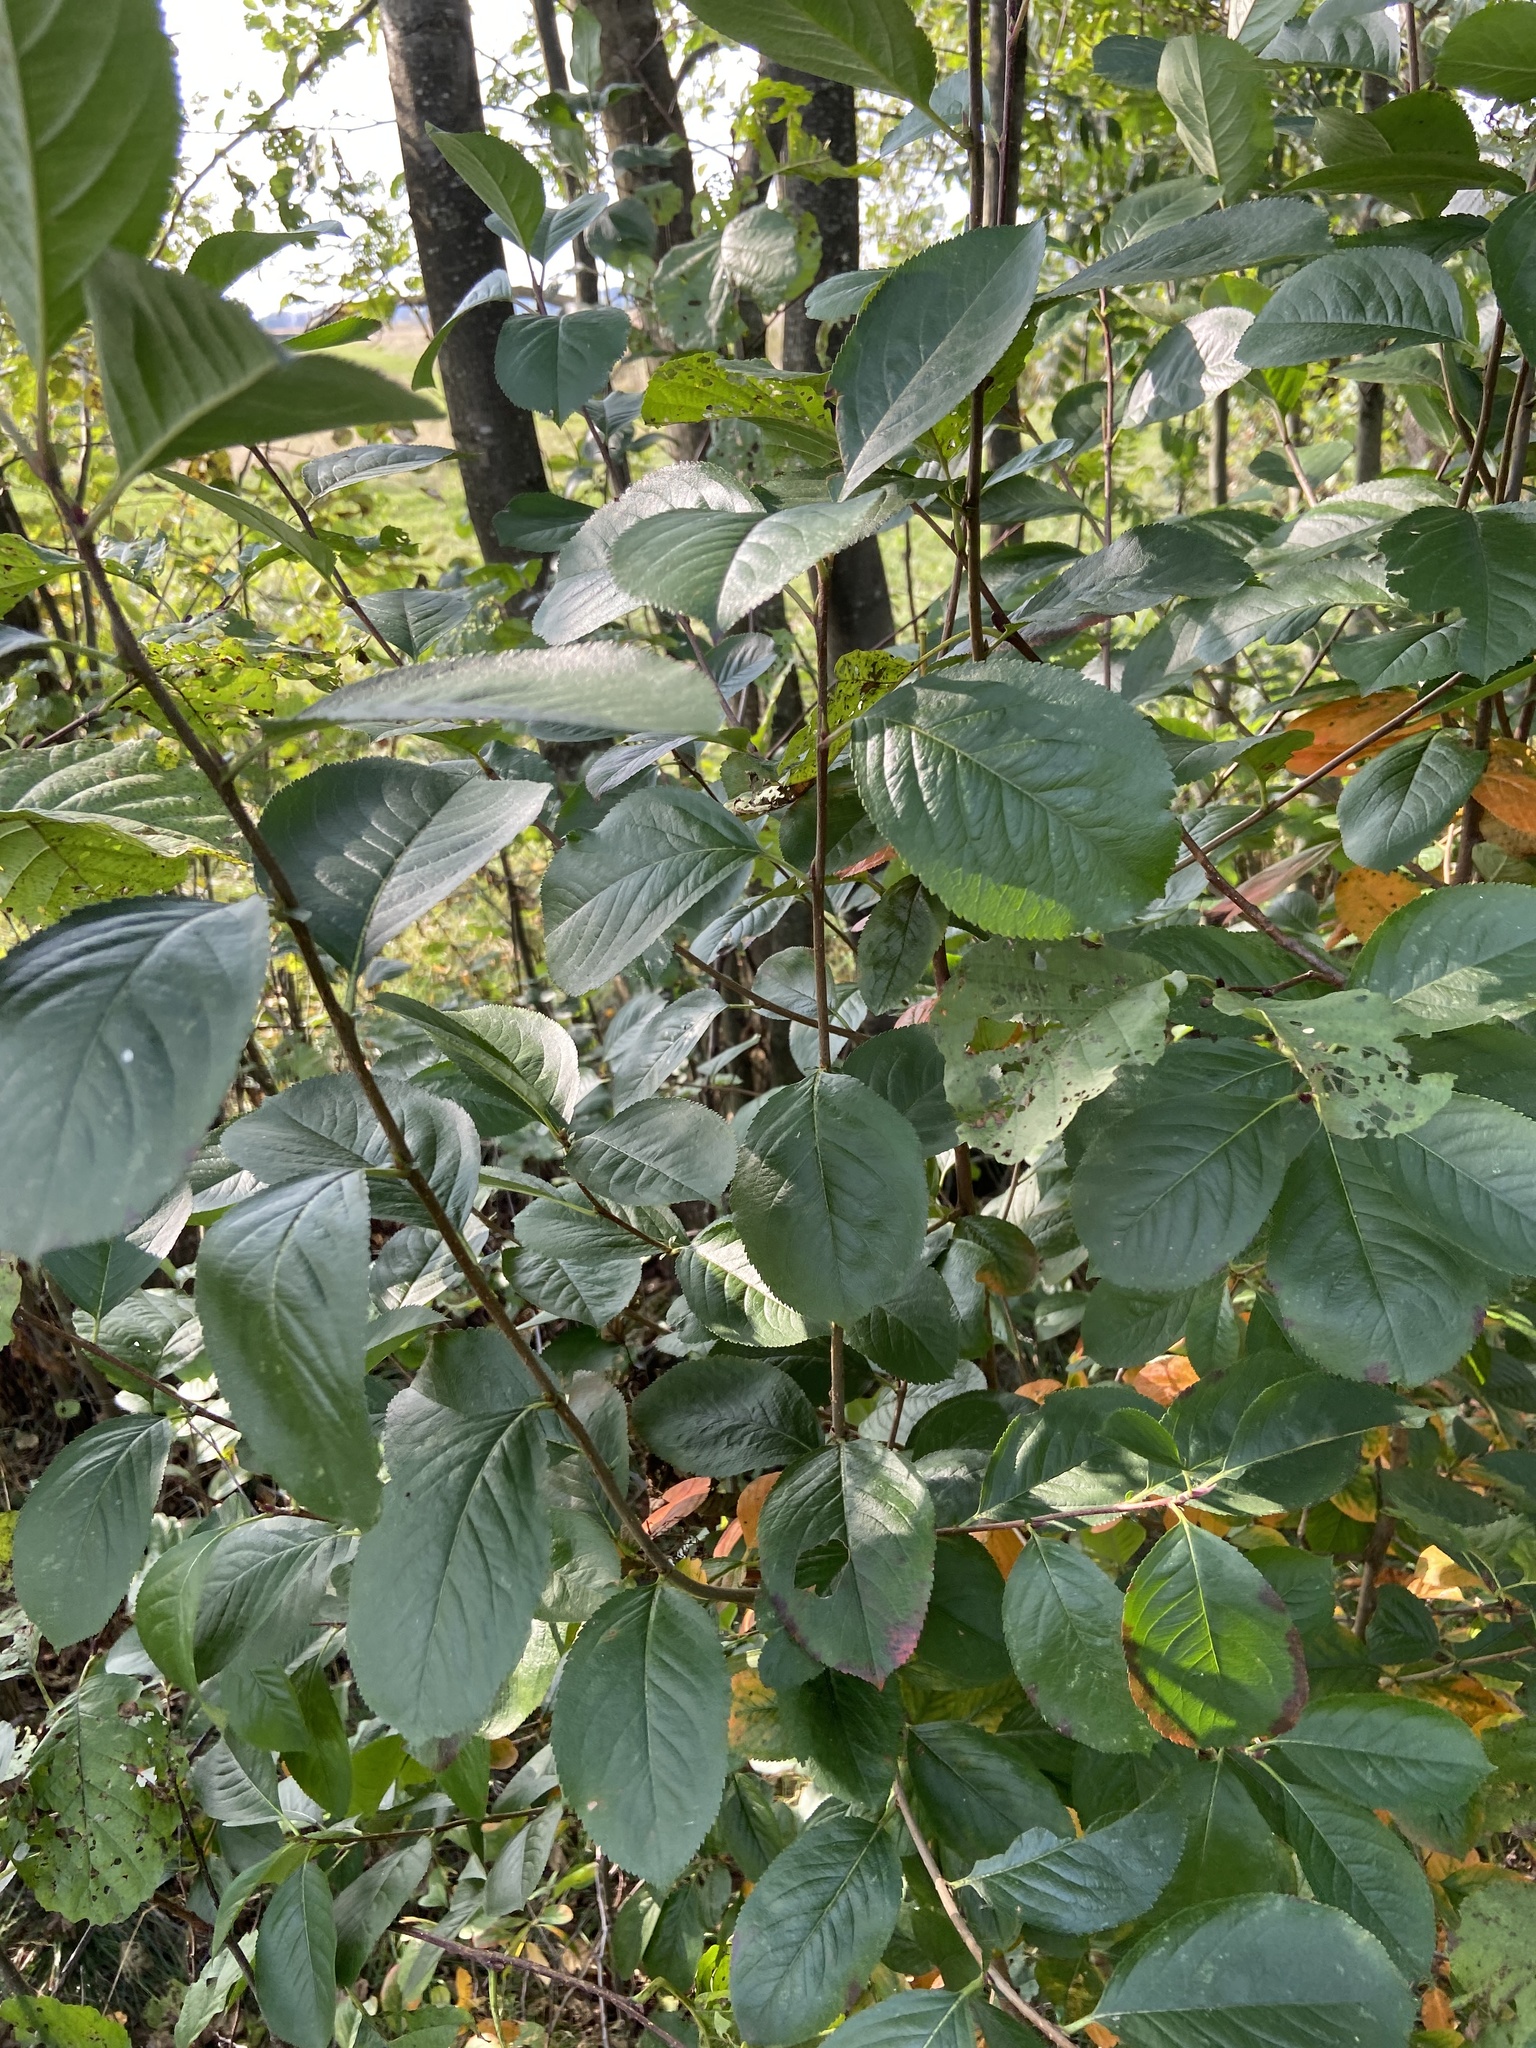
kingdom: Plantae
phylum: Tracheophyta
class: Magnoliopsida
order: Rosales
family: Rosaceae
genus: Sorbaronia
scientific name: Sorbaronia arsenii
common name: Arsène's mountain-ash
